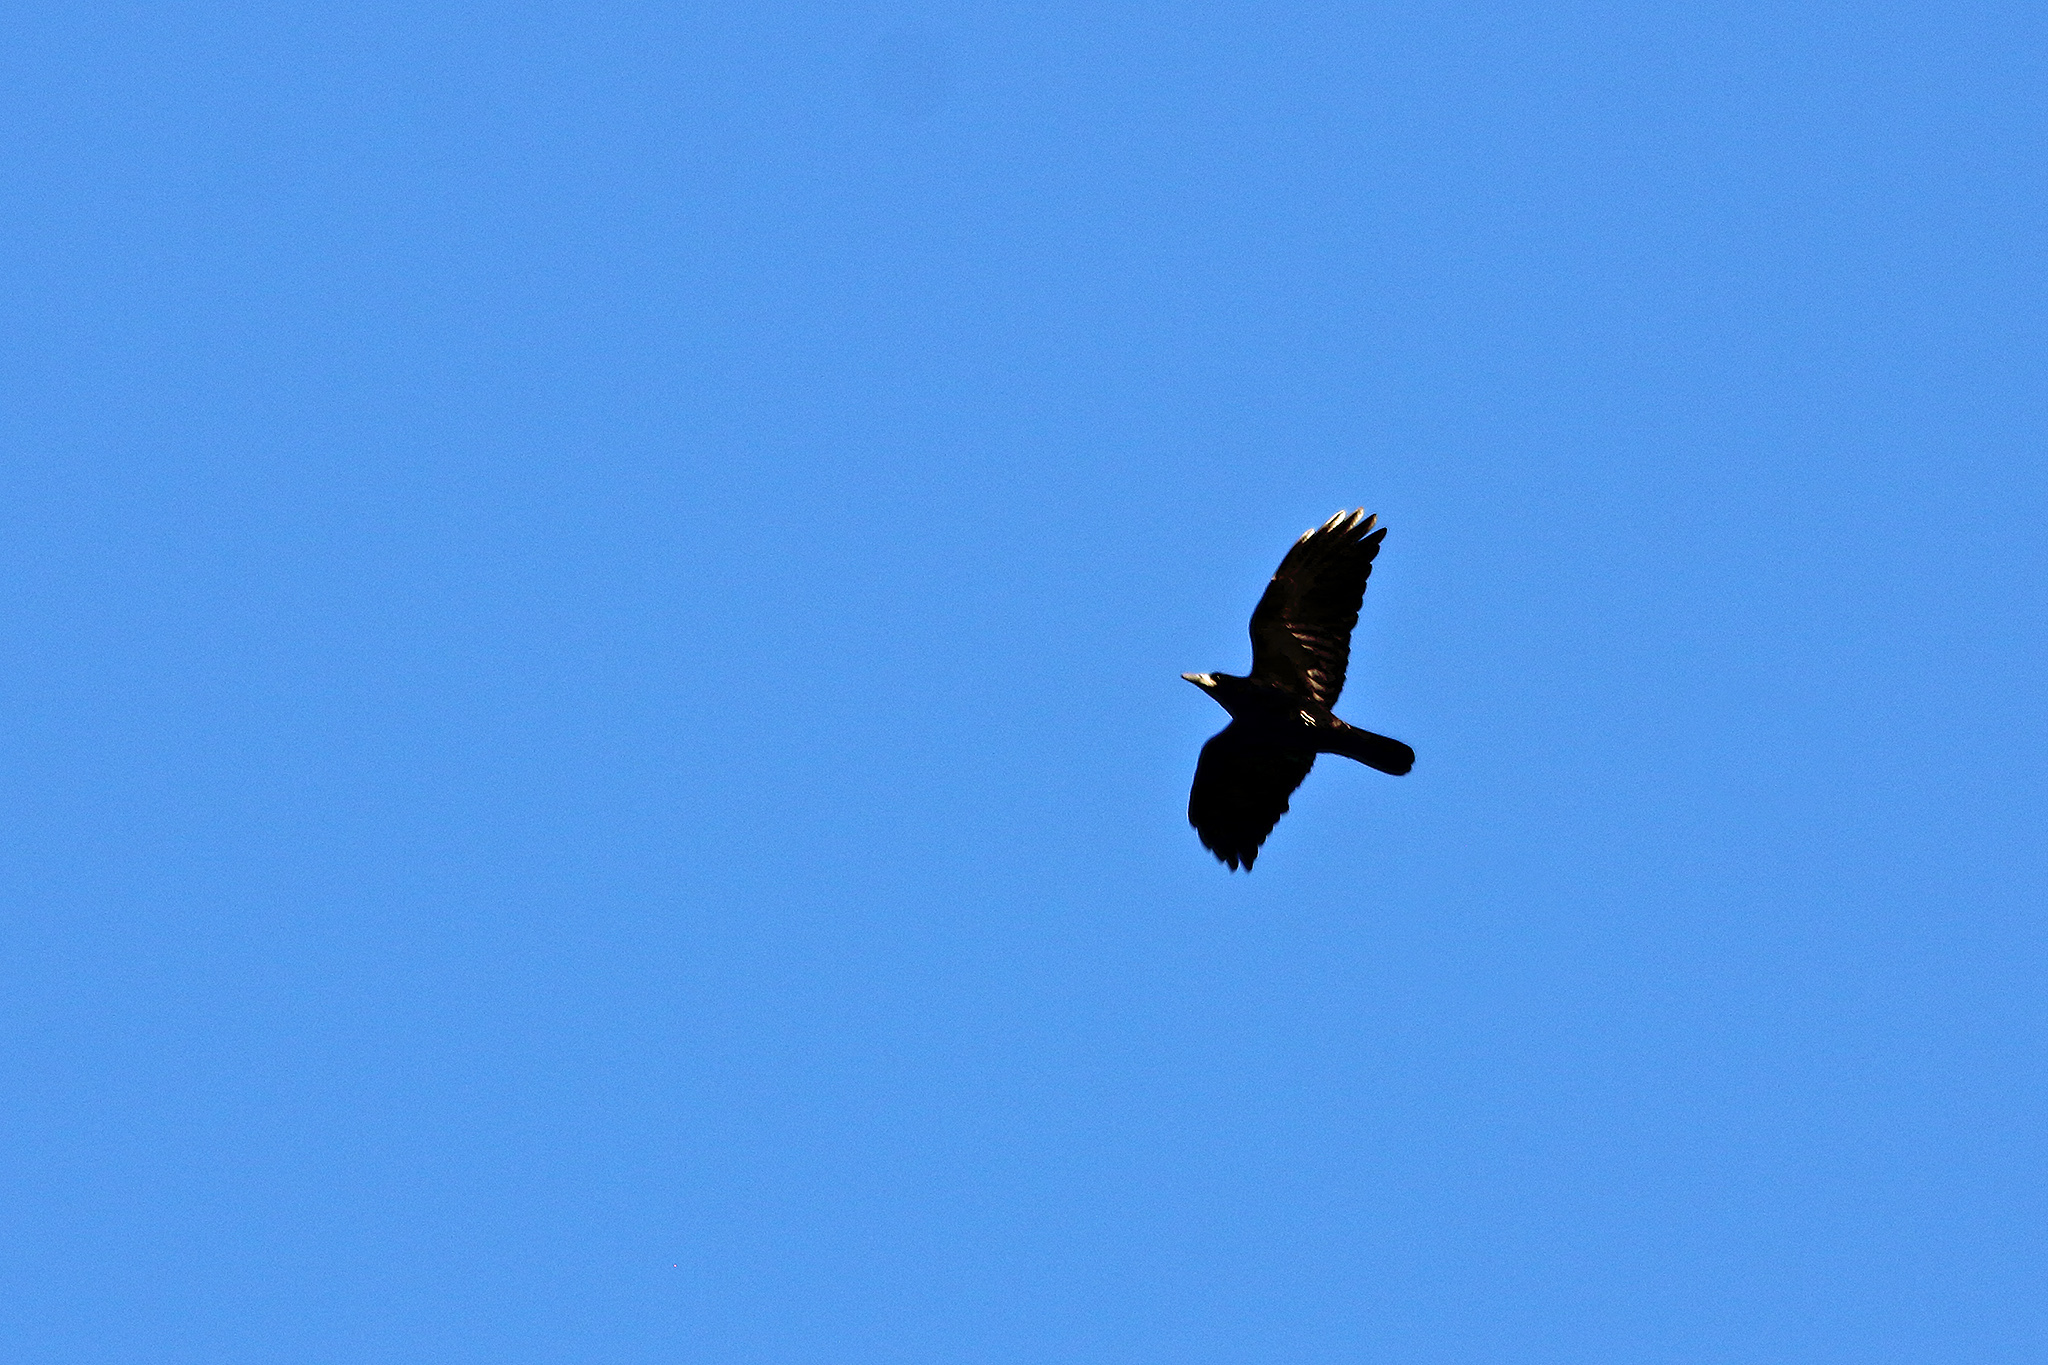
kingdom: Animalia
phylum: Chordata
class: Aves
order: Passeriformes
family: Corvidae
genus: Corvus
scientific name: Corvus frugilegus
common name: Rook
